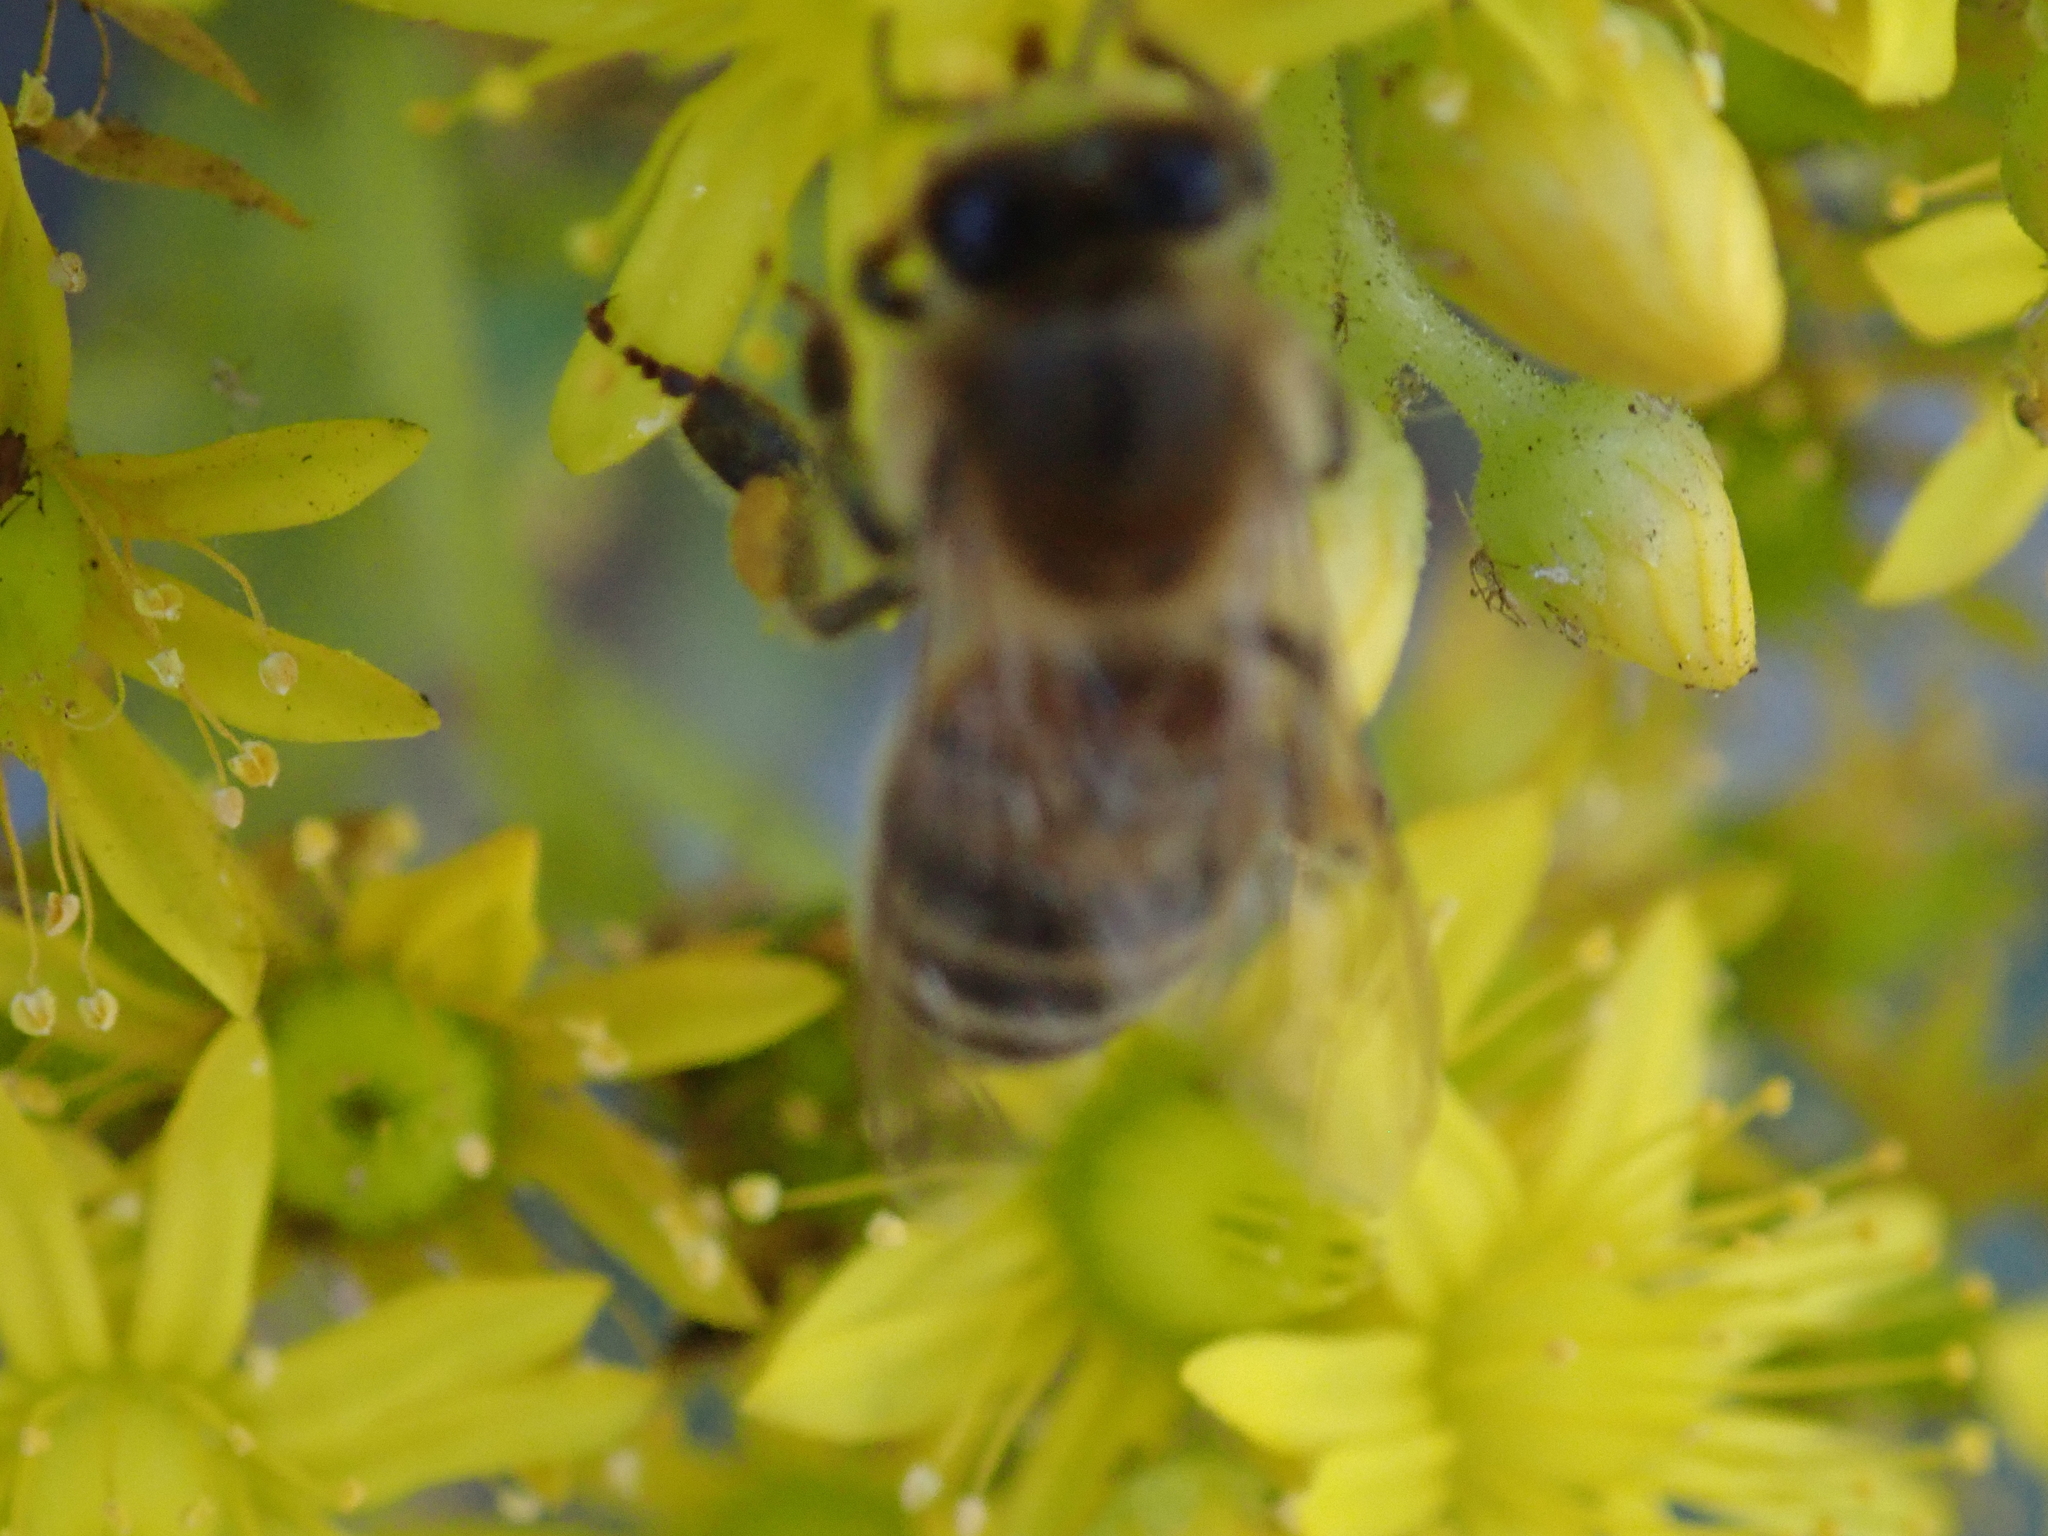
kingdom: Animalia
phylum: Arthropoda
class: Insecta
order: Hymenoptera
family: Apidae
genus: Apis
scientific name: Apis mellifera
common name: Honey bee
